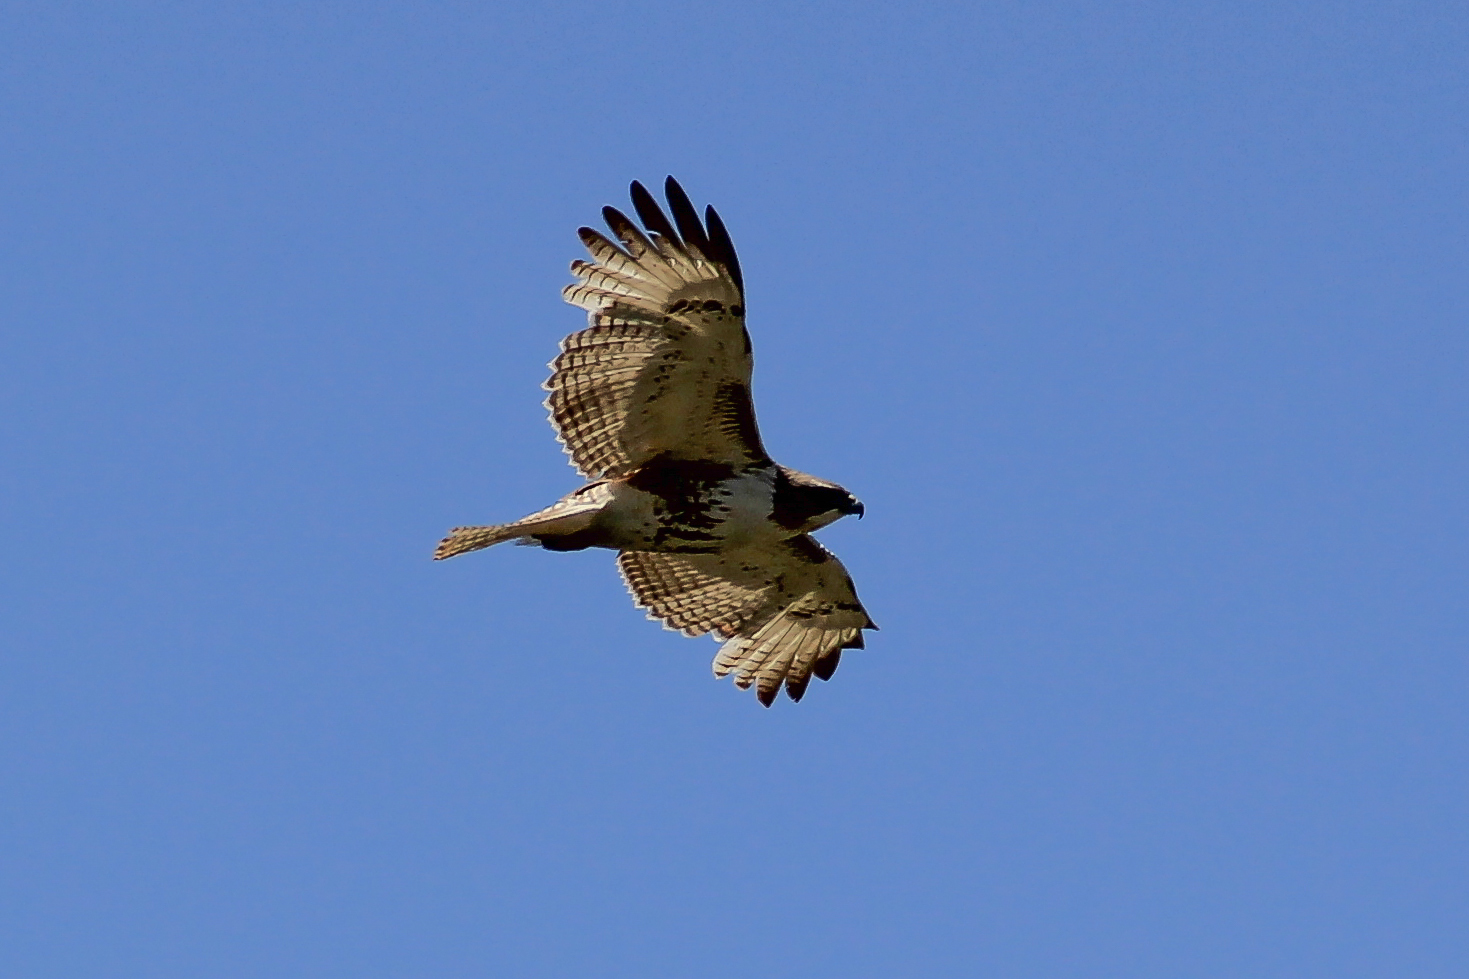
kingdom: Animalia
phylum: Chordata
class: Aves
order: Accipitriformes
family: Accipitridae
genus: Buteo
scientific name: Buteo jamaicensis
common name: Red-tailed hawk
